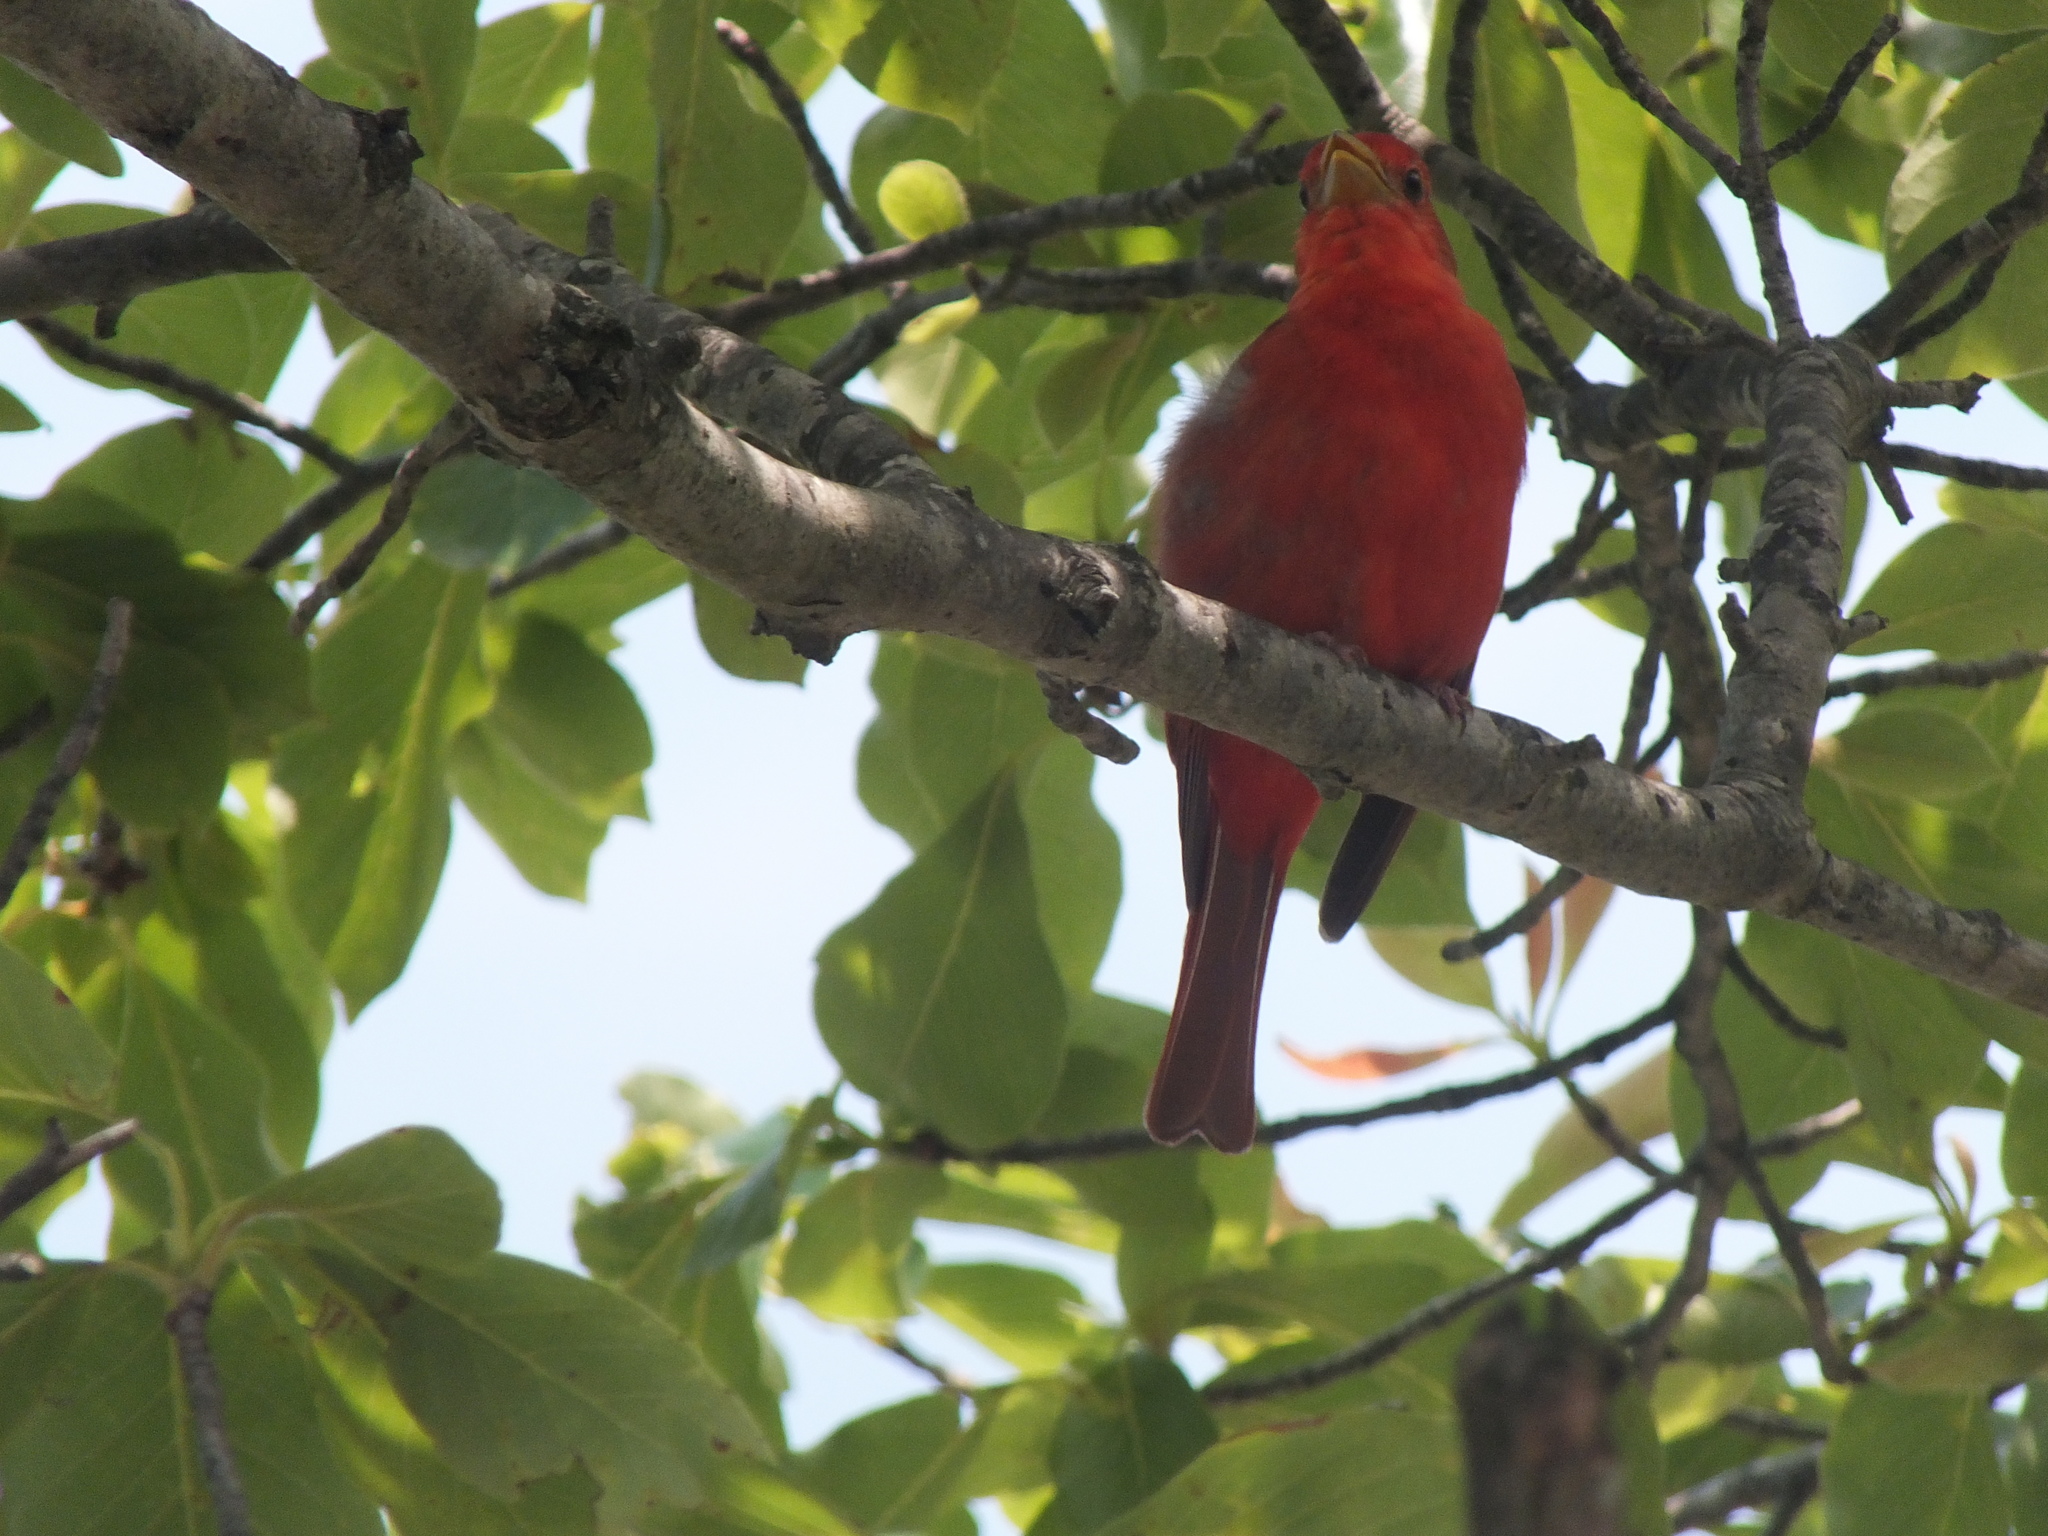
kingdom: Animalia
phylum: Chordata
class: Aves
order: Passeriformes
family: Cardinalidae
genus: Piranga
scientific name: Piranga rubra
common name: Summer tanager
